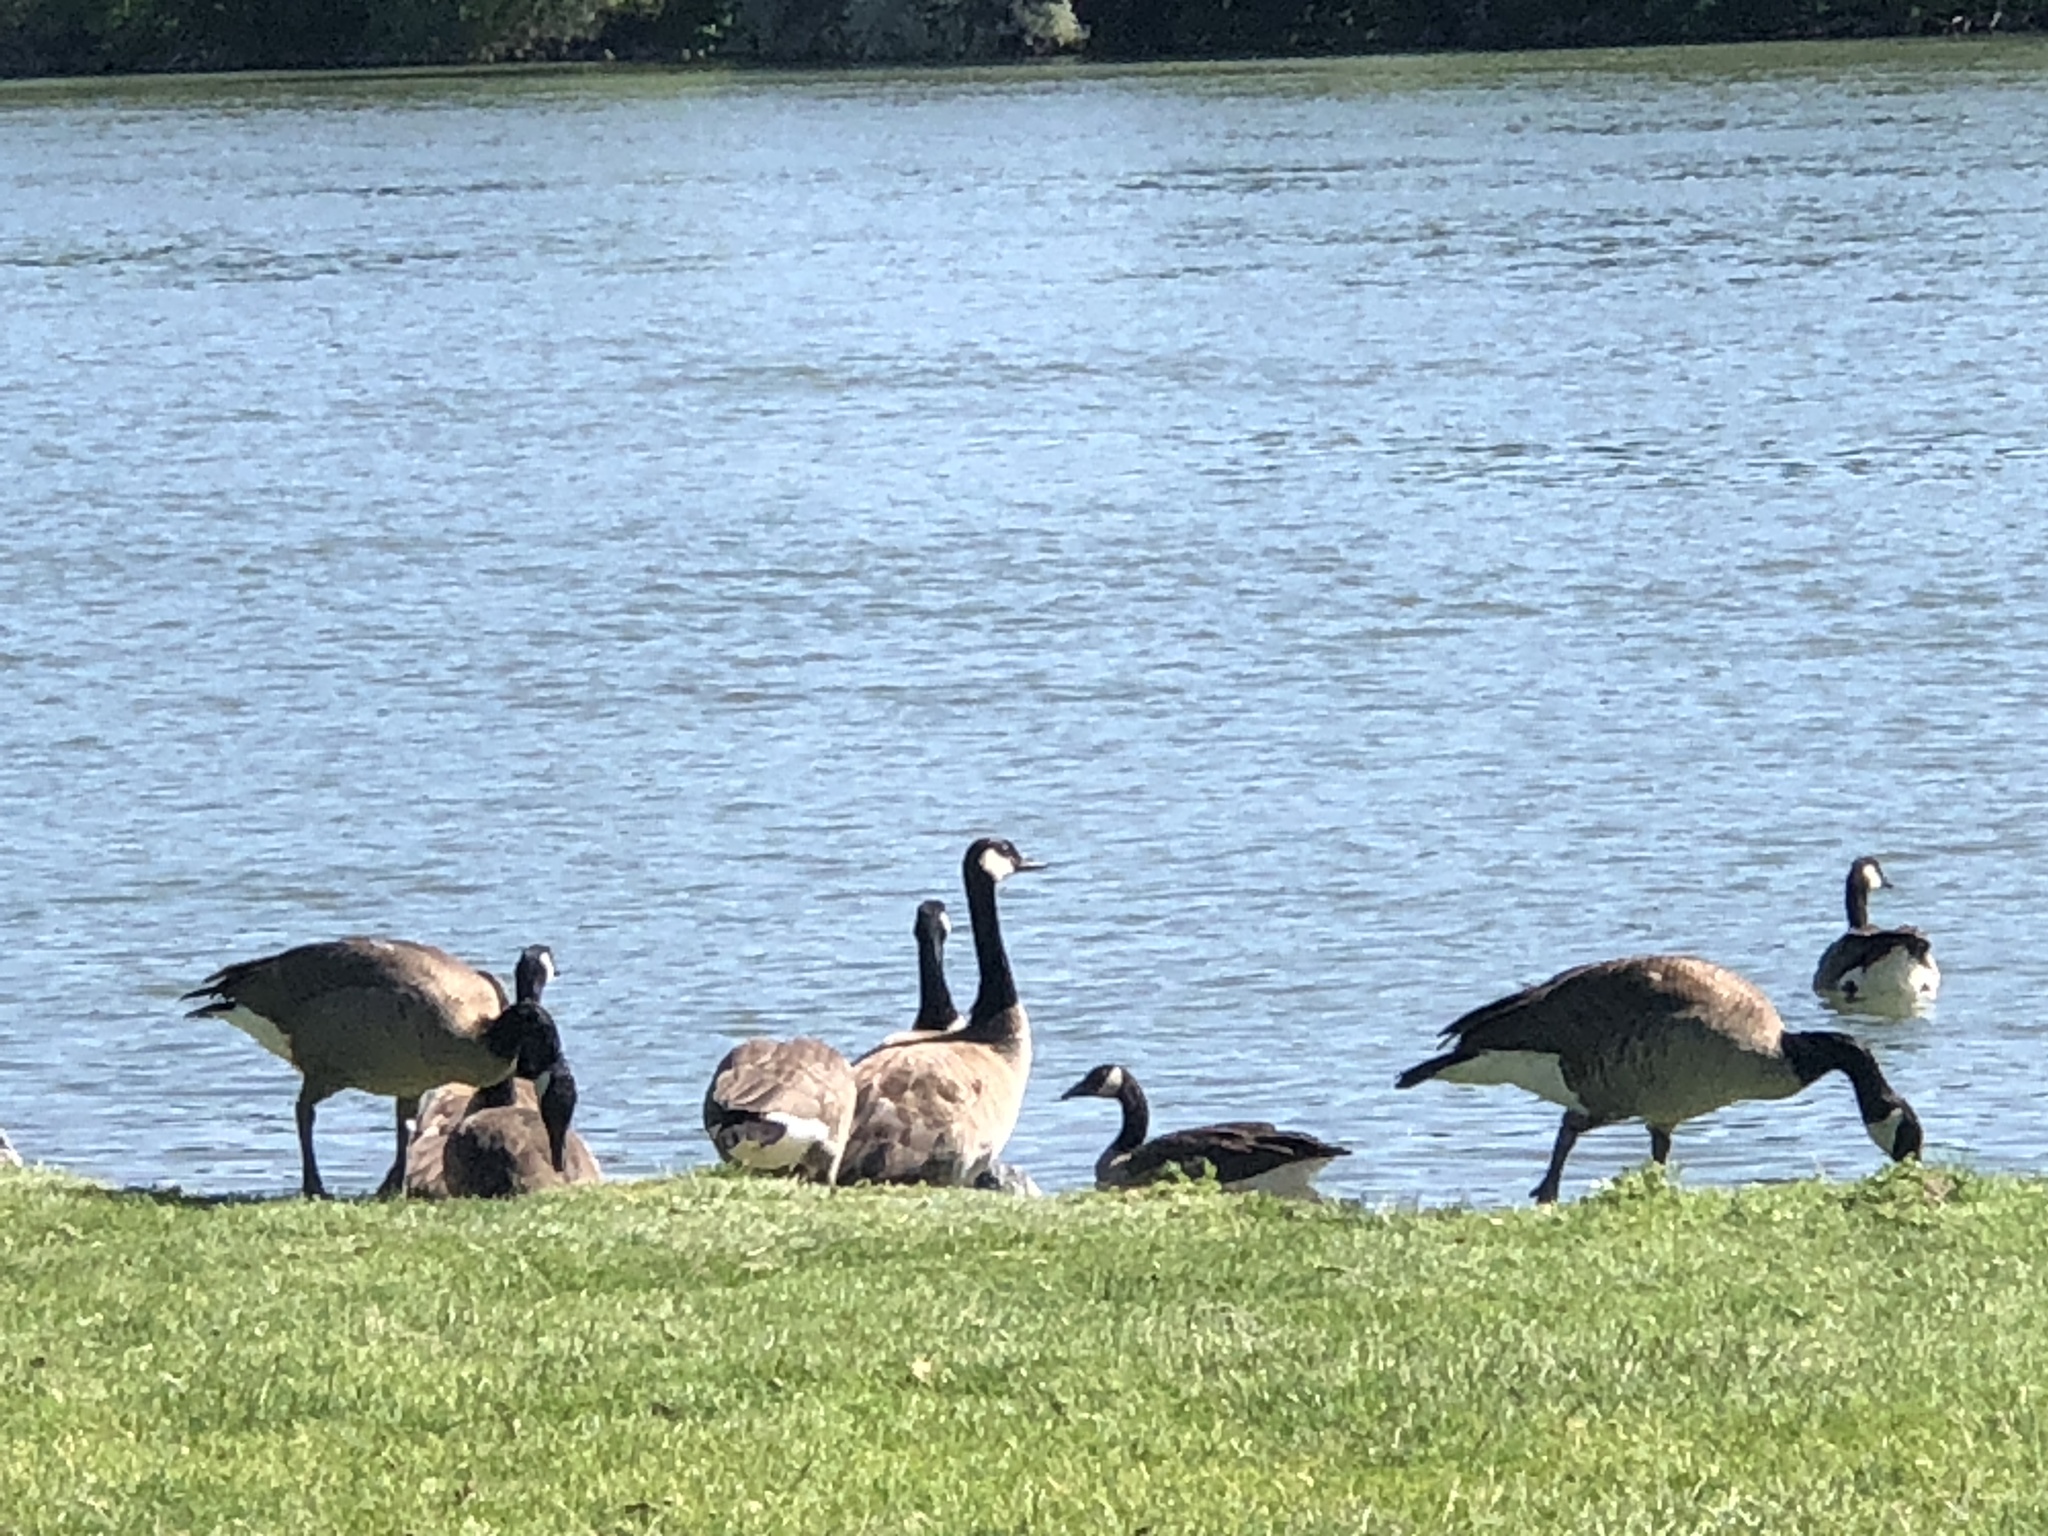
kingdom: Animalia
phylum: Chordata
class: Aves
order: Anseriformes
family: Anatidae
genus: Branta
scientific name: Branta canadensis
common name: Canada goose
